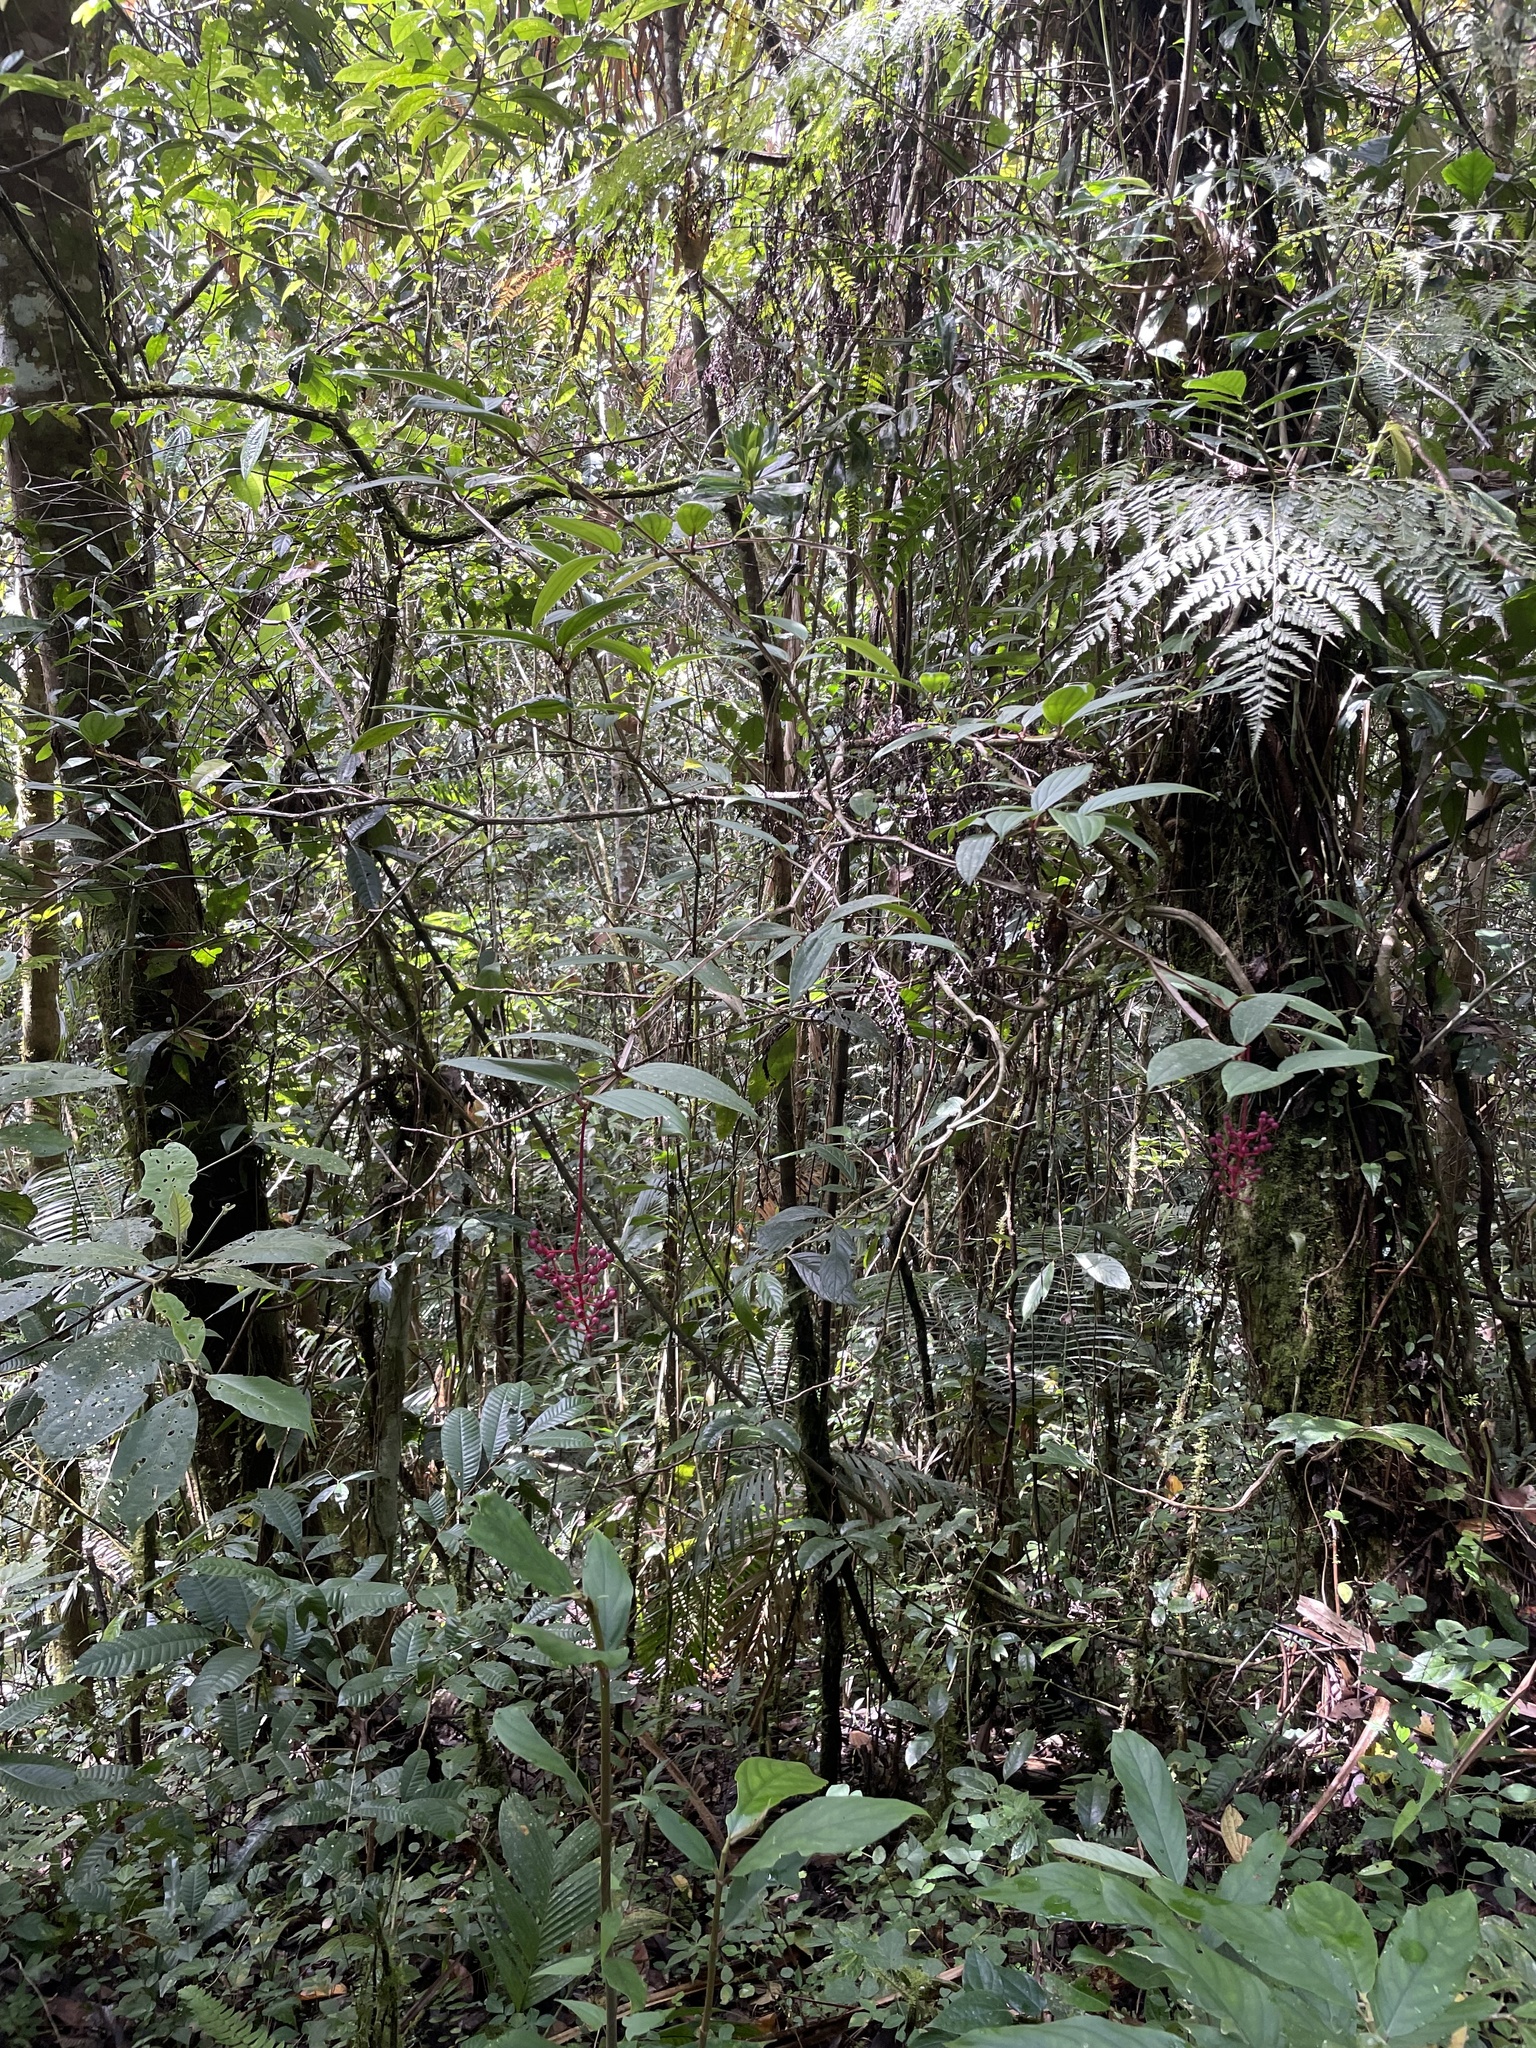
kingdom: Plantae
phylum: Tracheophyta
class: Magnoliopsida
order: Myrtales
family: Melastomataceae
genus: Medinilla
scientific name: Medinilla clementis
